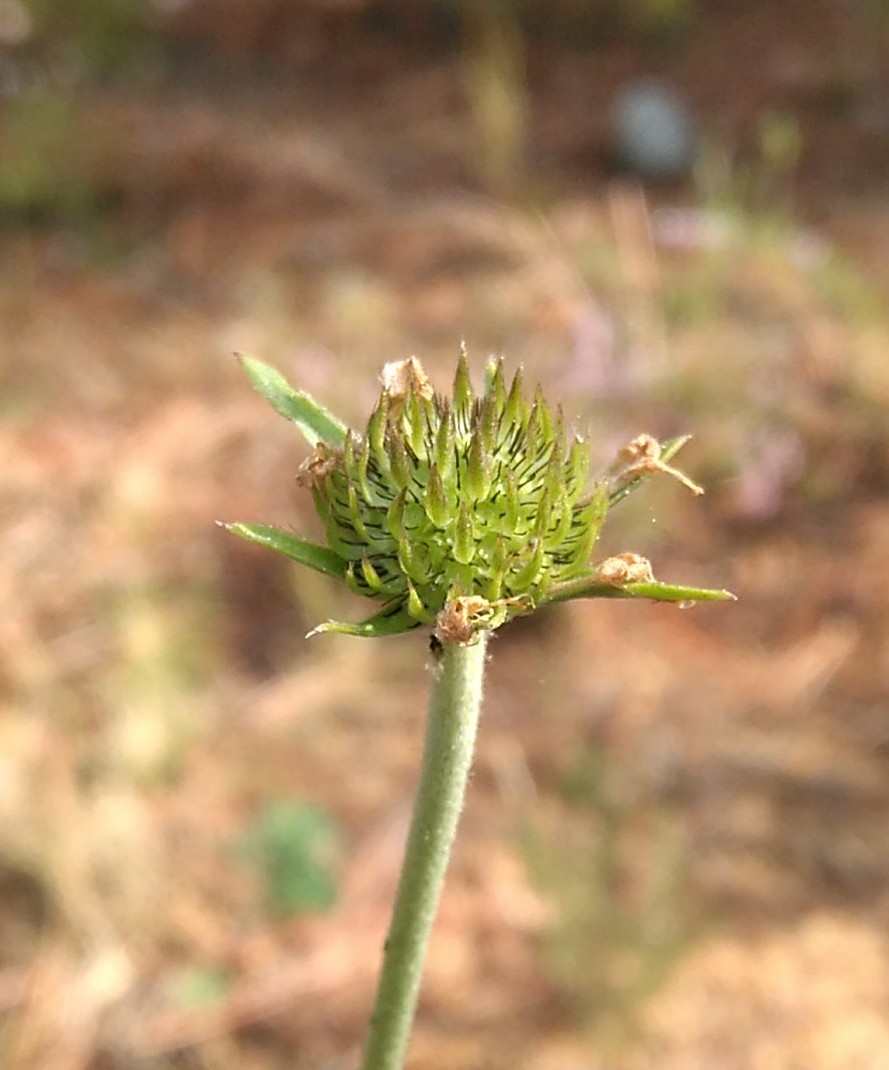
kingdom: Plantae
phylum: Tracheophyta
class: Magnoliopsida
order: Dipsacales
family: Caprifoliaceae
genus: Succisa
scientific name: Succisa pratensis
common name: Devil's-bit
